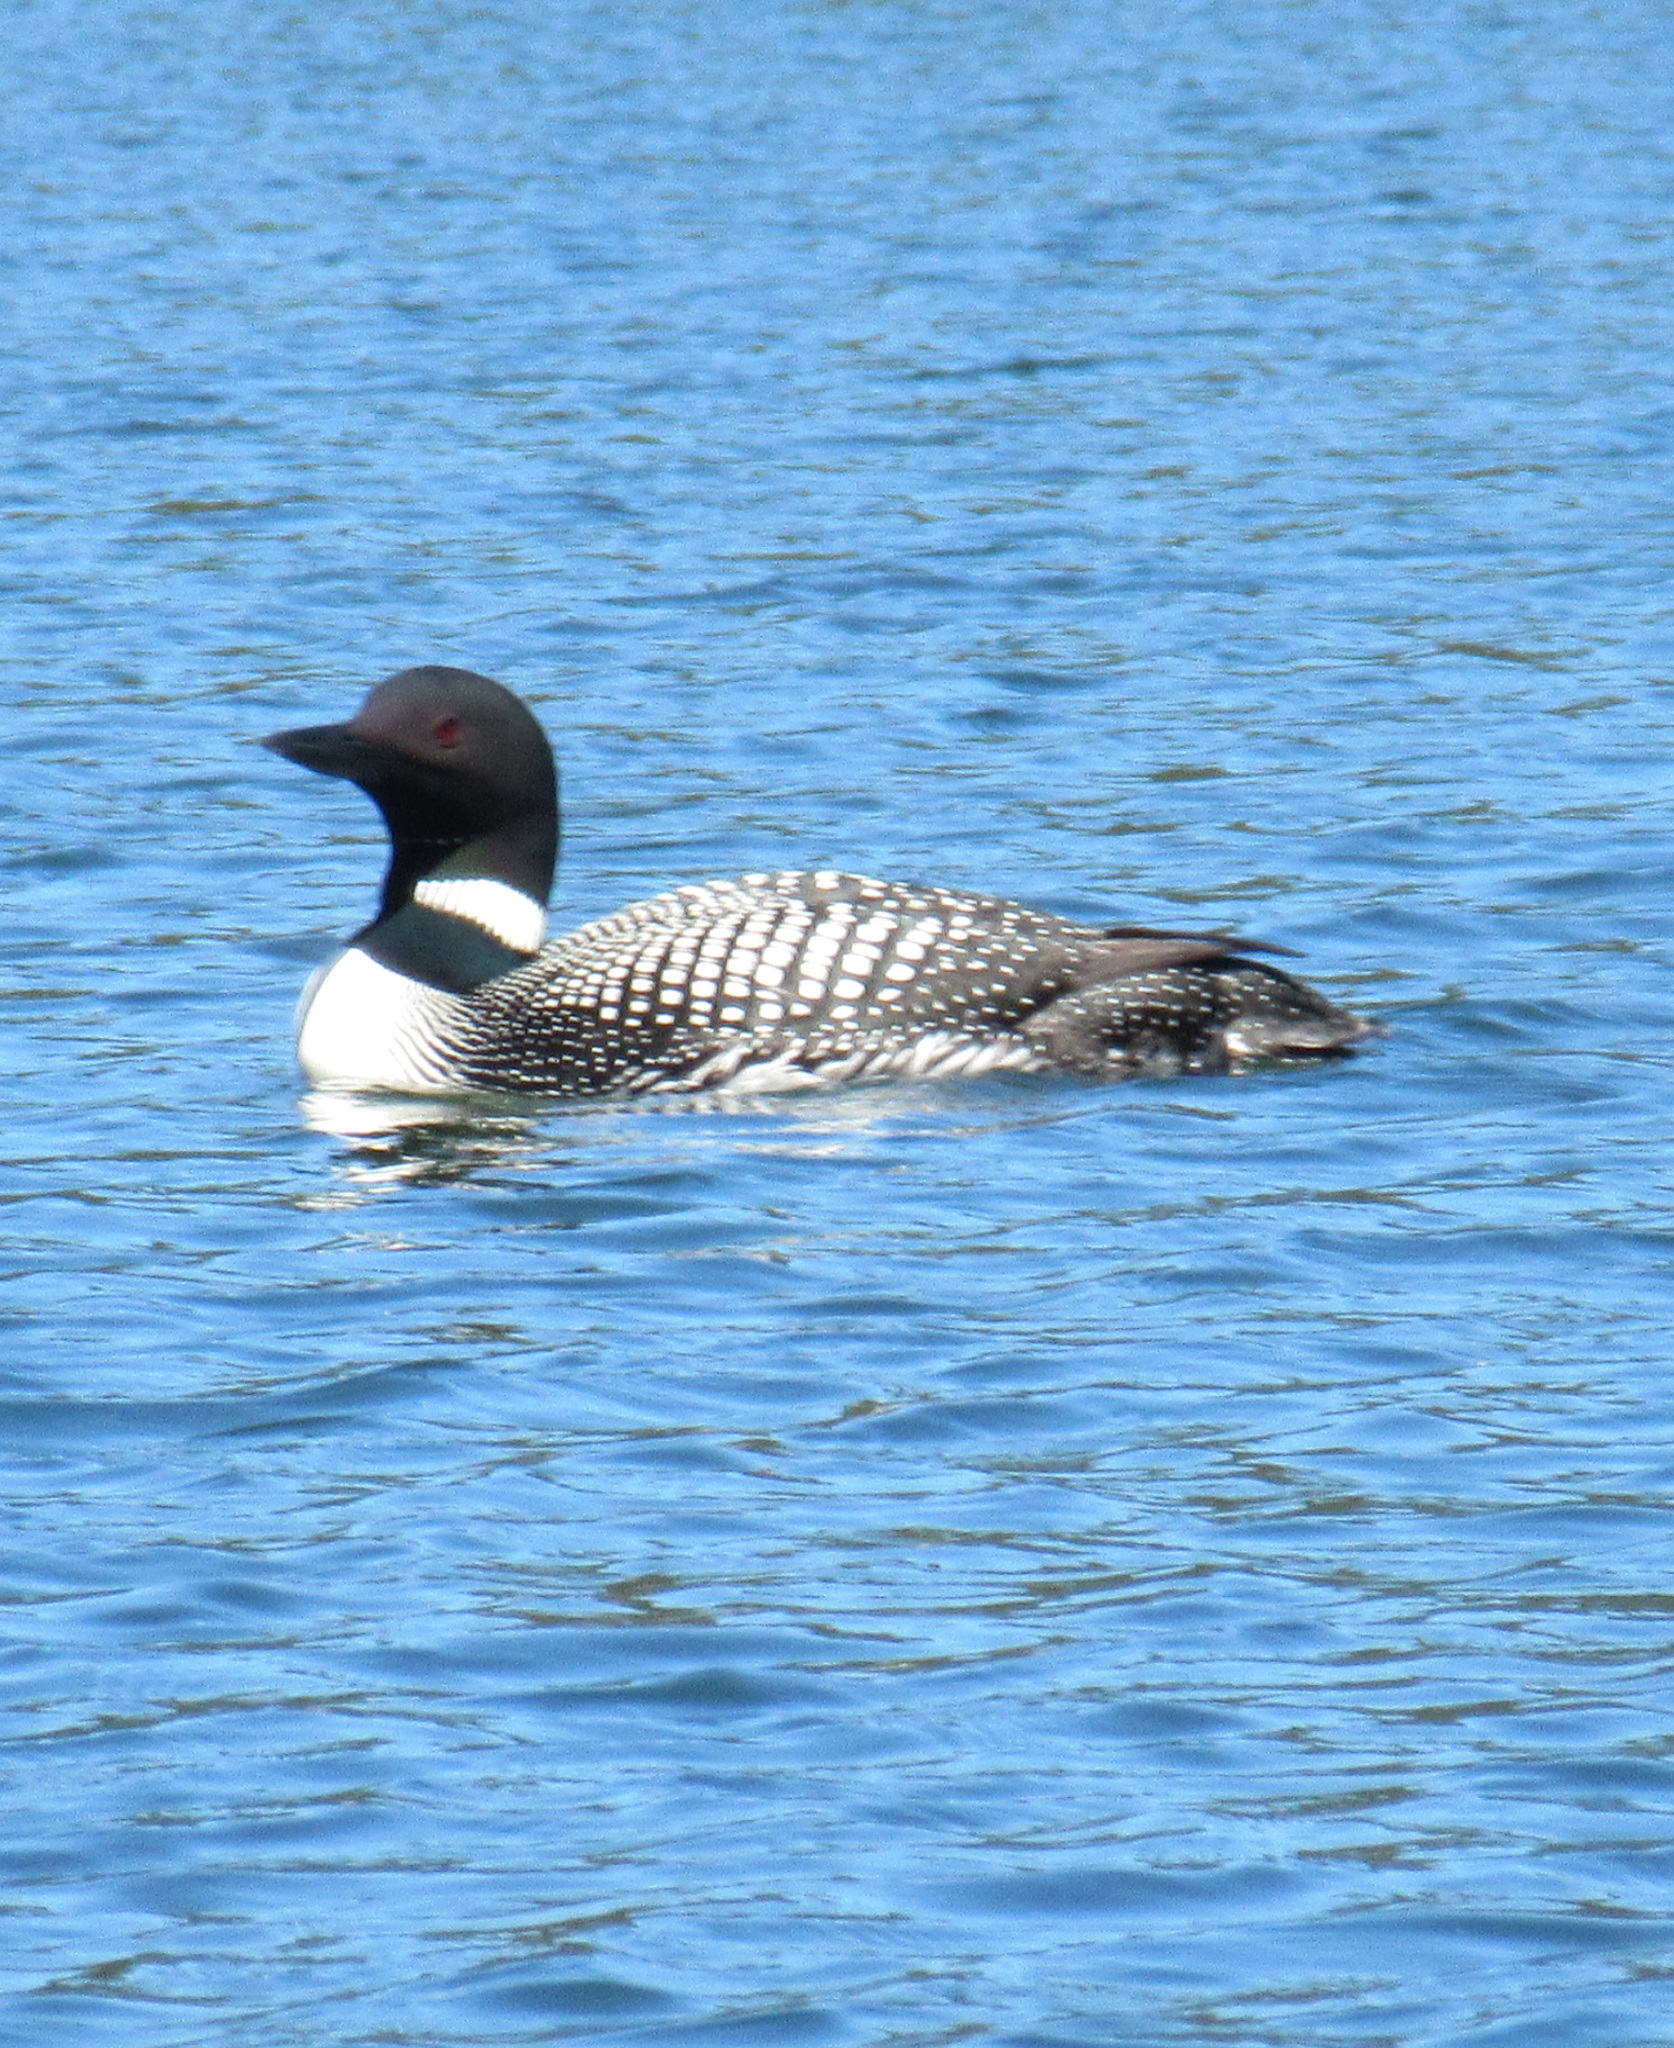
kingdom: Animalia
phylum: Chordata
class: Aves
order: Gaviiformes
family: Gaviidae
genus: Gavia
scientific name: Gavia immer
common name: Common loon
